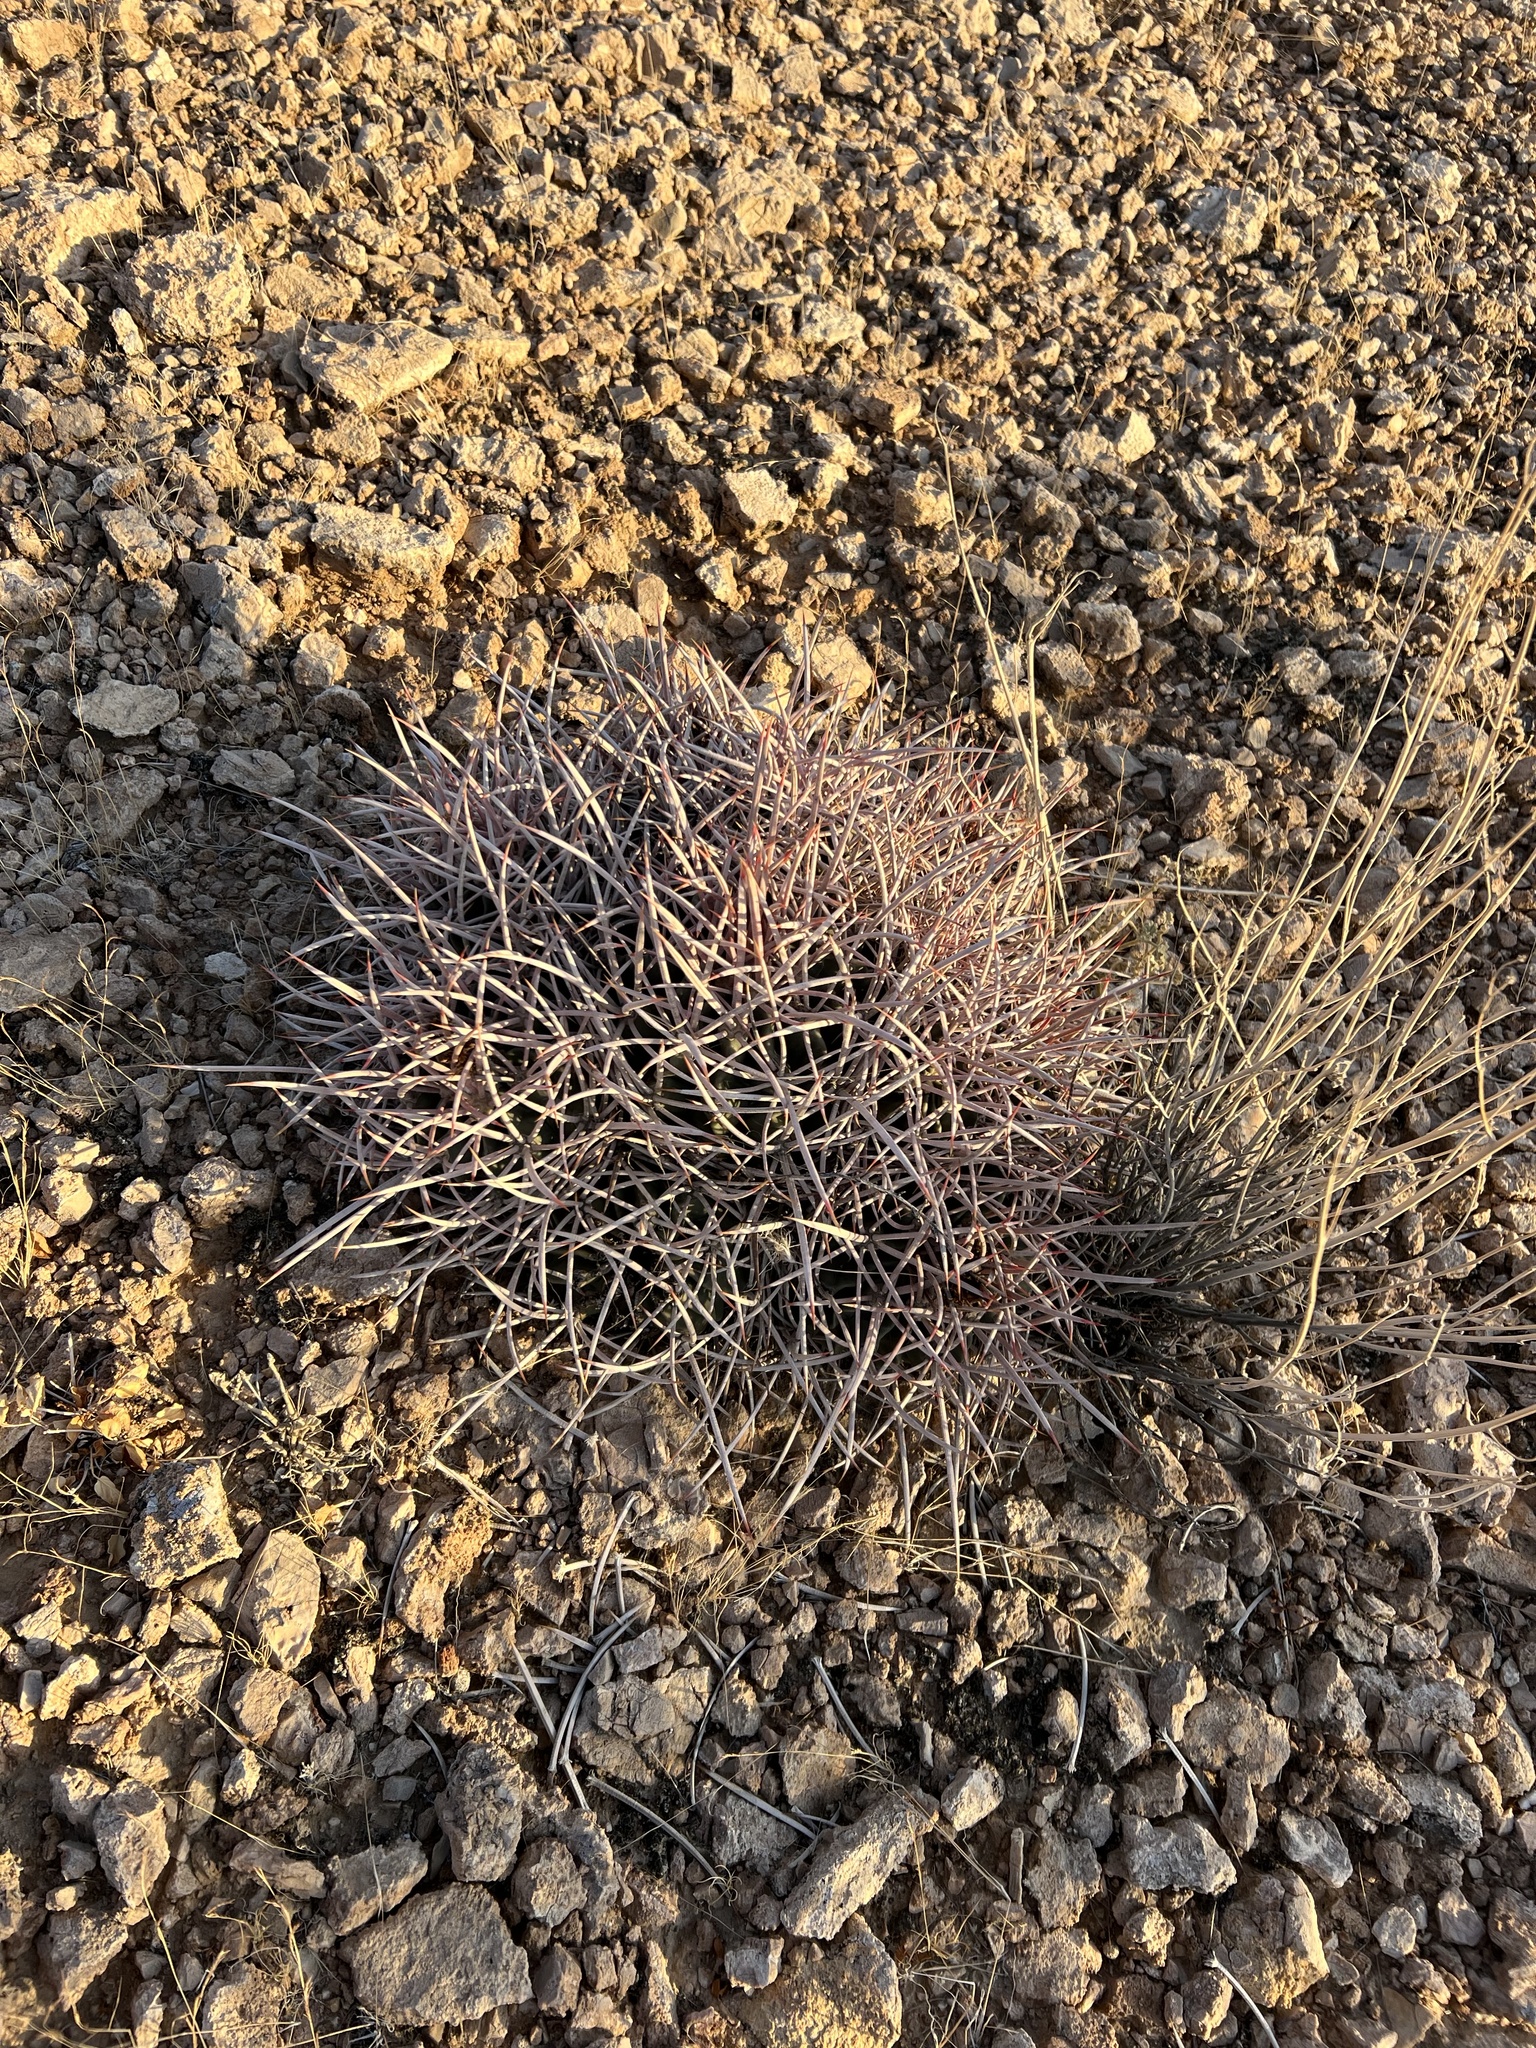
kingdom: Plantae
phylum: Tracheophyta
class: Magnoliopsida
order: Caryophyllales
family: Cactaceae
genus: Echinocactus
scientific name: Echinocactus polycephalus
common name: Cottontop cactus
